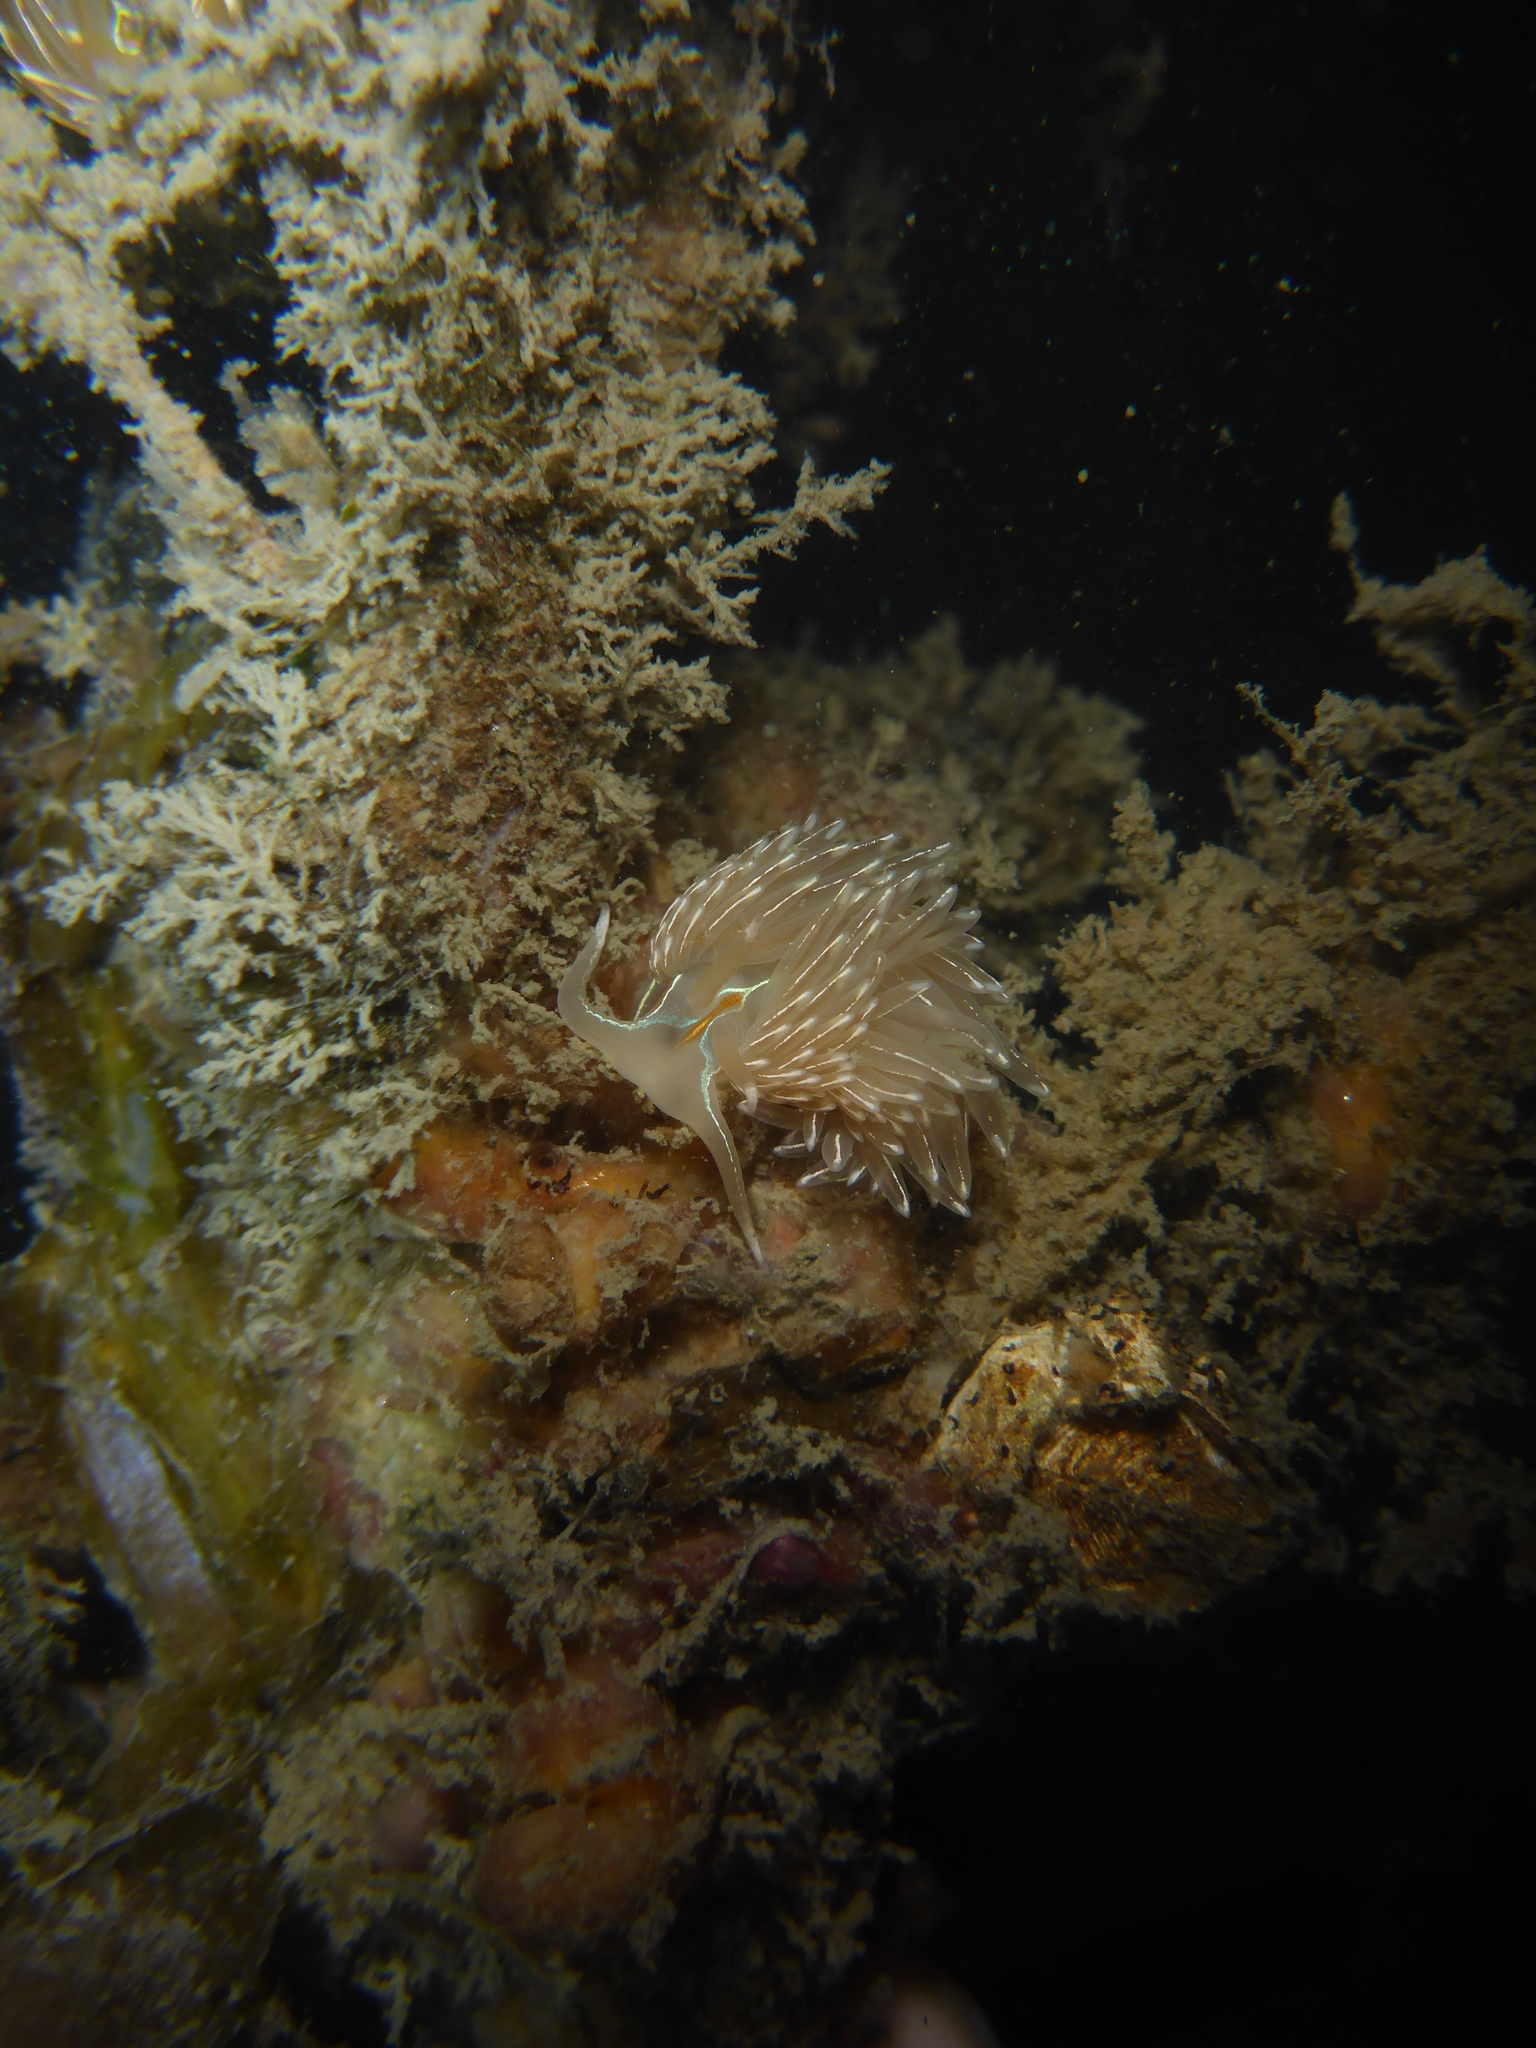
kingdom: Animalia
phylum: Mollusca
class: Gastropoda
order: Nudibranchia
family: Myrrhinidae
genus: Hermissenda
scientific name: Hermissenda crassicornis
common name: Hermissenda
